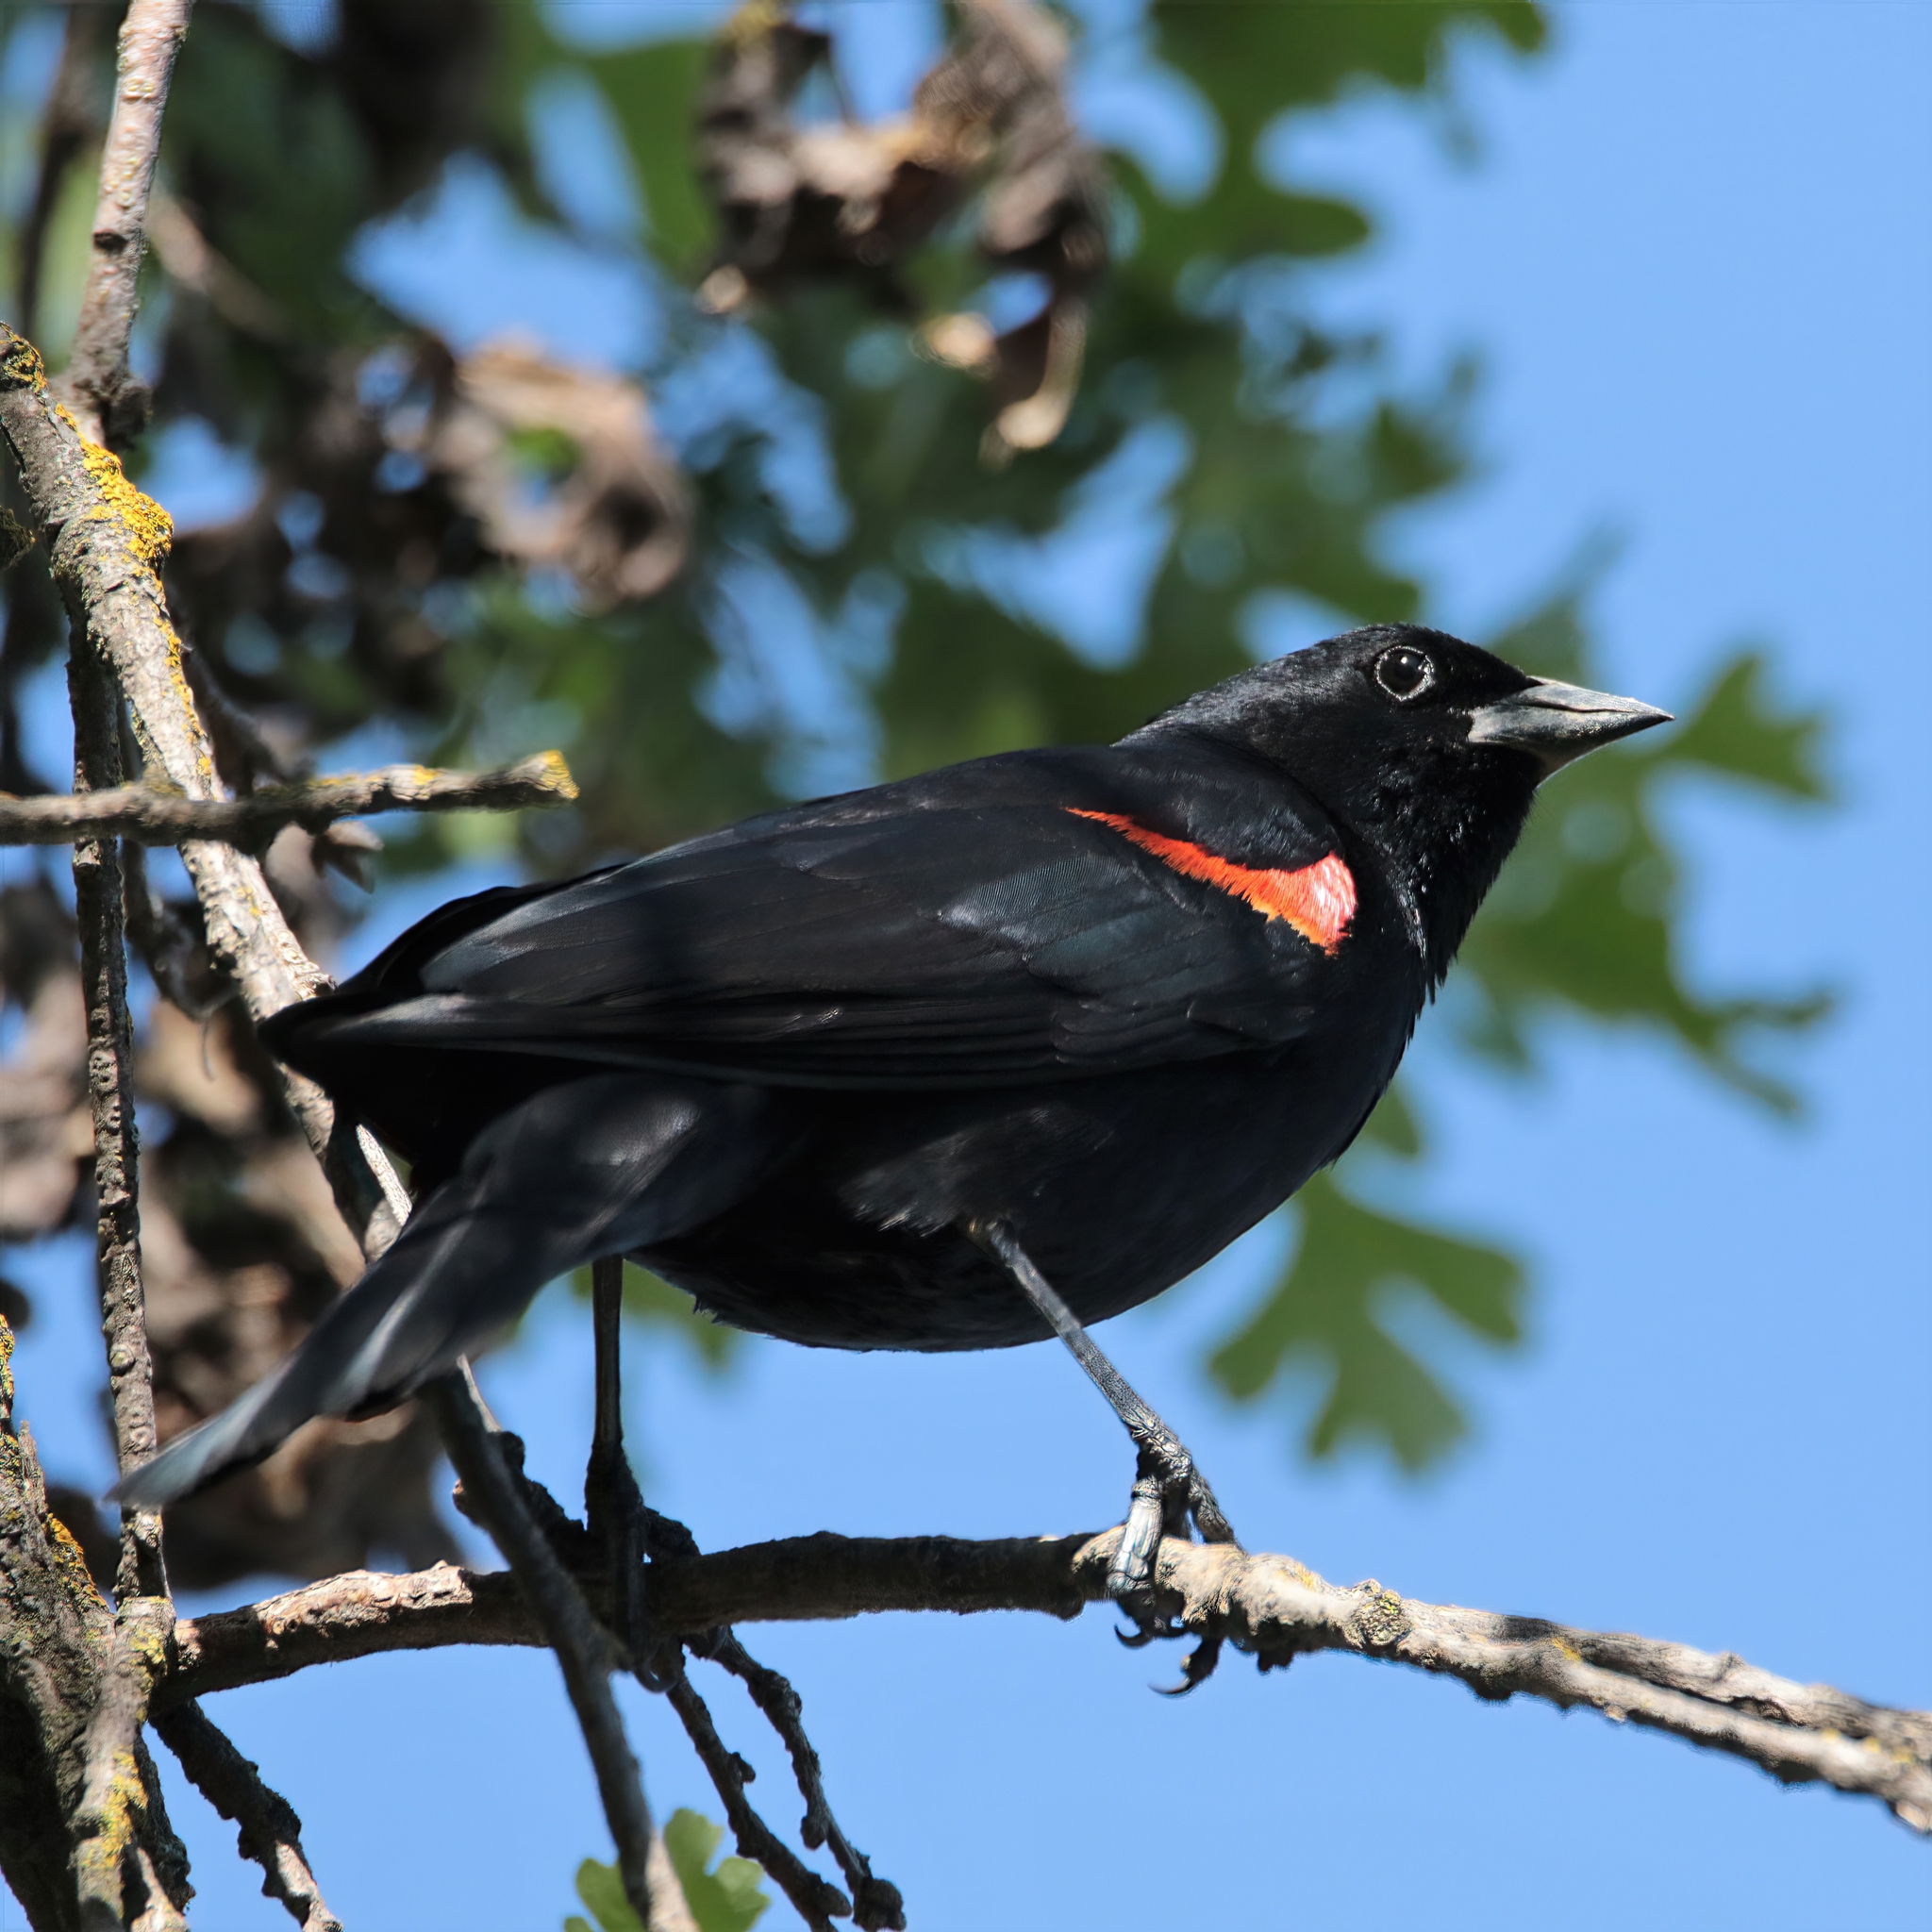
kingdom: Animalia
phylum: Chordata
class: Aves
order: Passeriformes
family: Icteridae
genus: Agelaius
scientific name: Agelaius phoeniceus
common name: Red-winged blackbird
